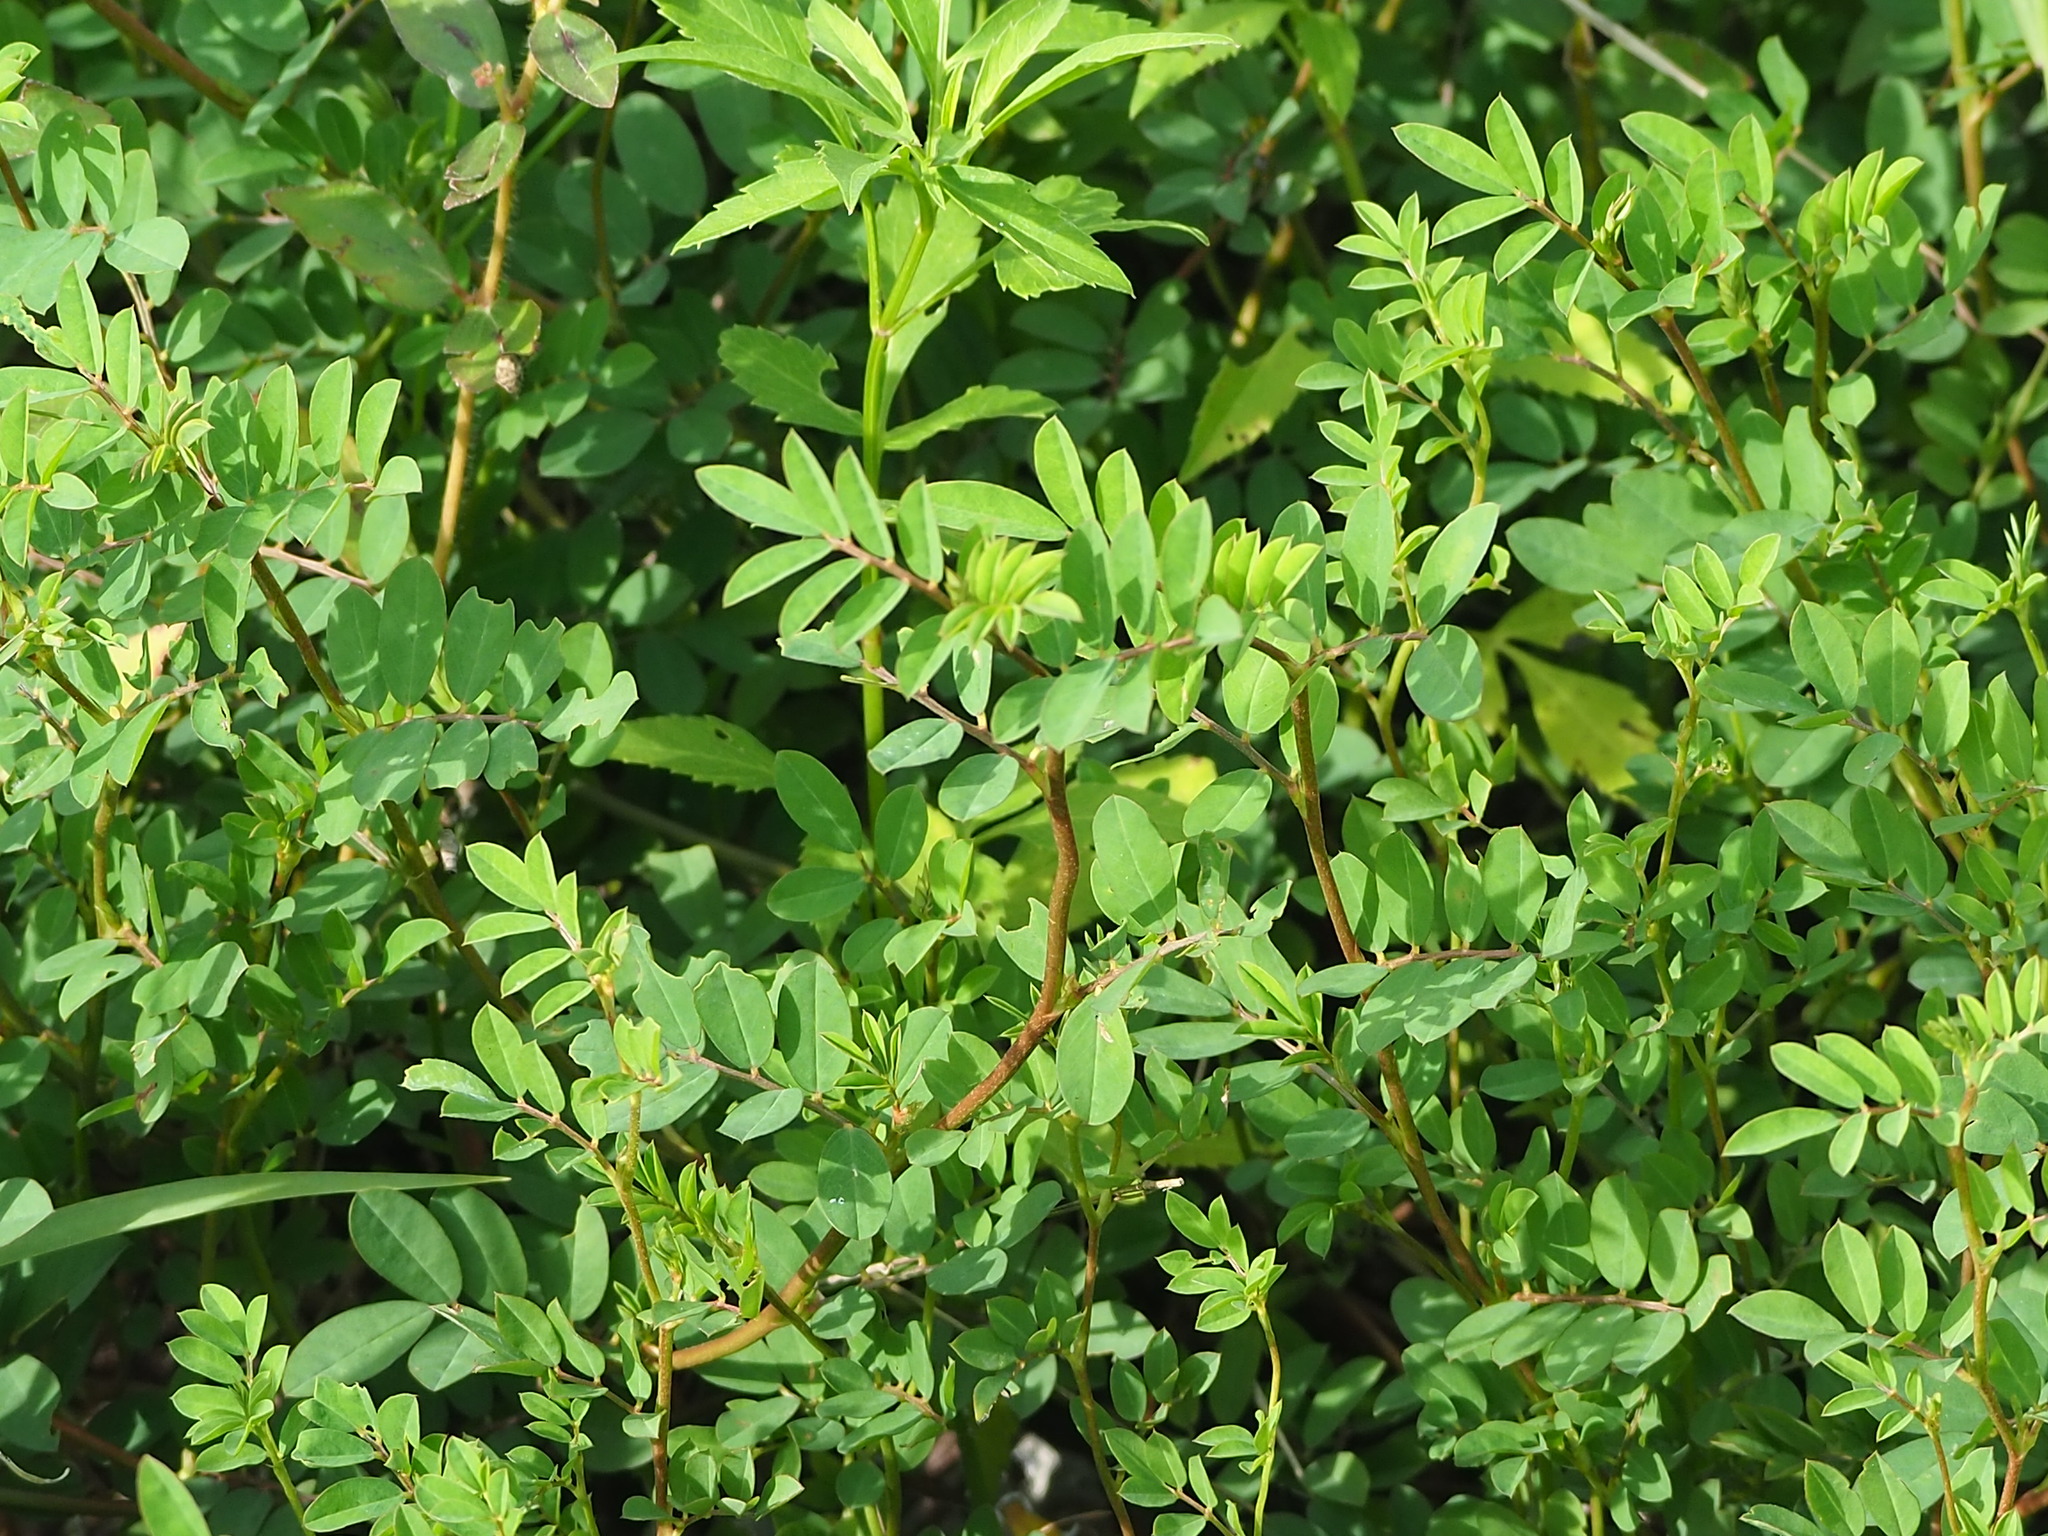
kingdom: Plantae
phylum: Tracheophyta
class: Magnoliopsida
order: Fabales
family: Fabaceae
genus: Indigofera
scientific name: Indigofera spicata
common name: Creeping indigo
